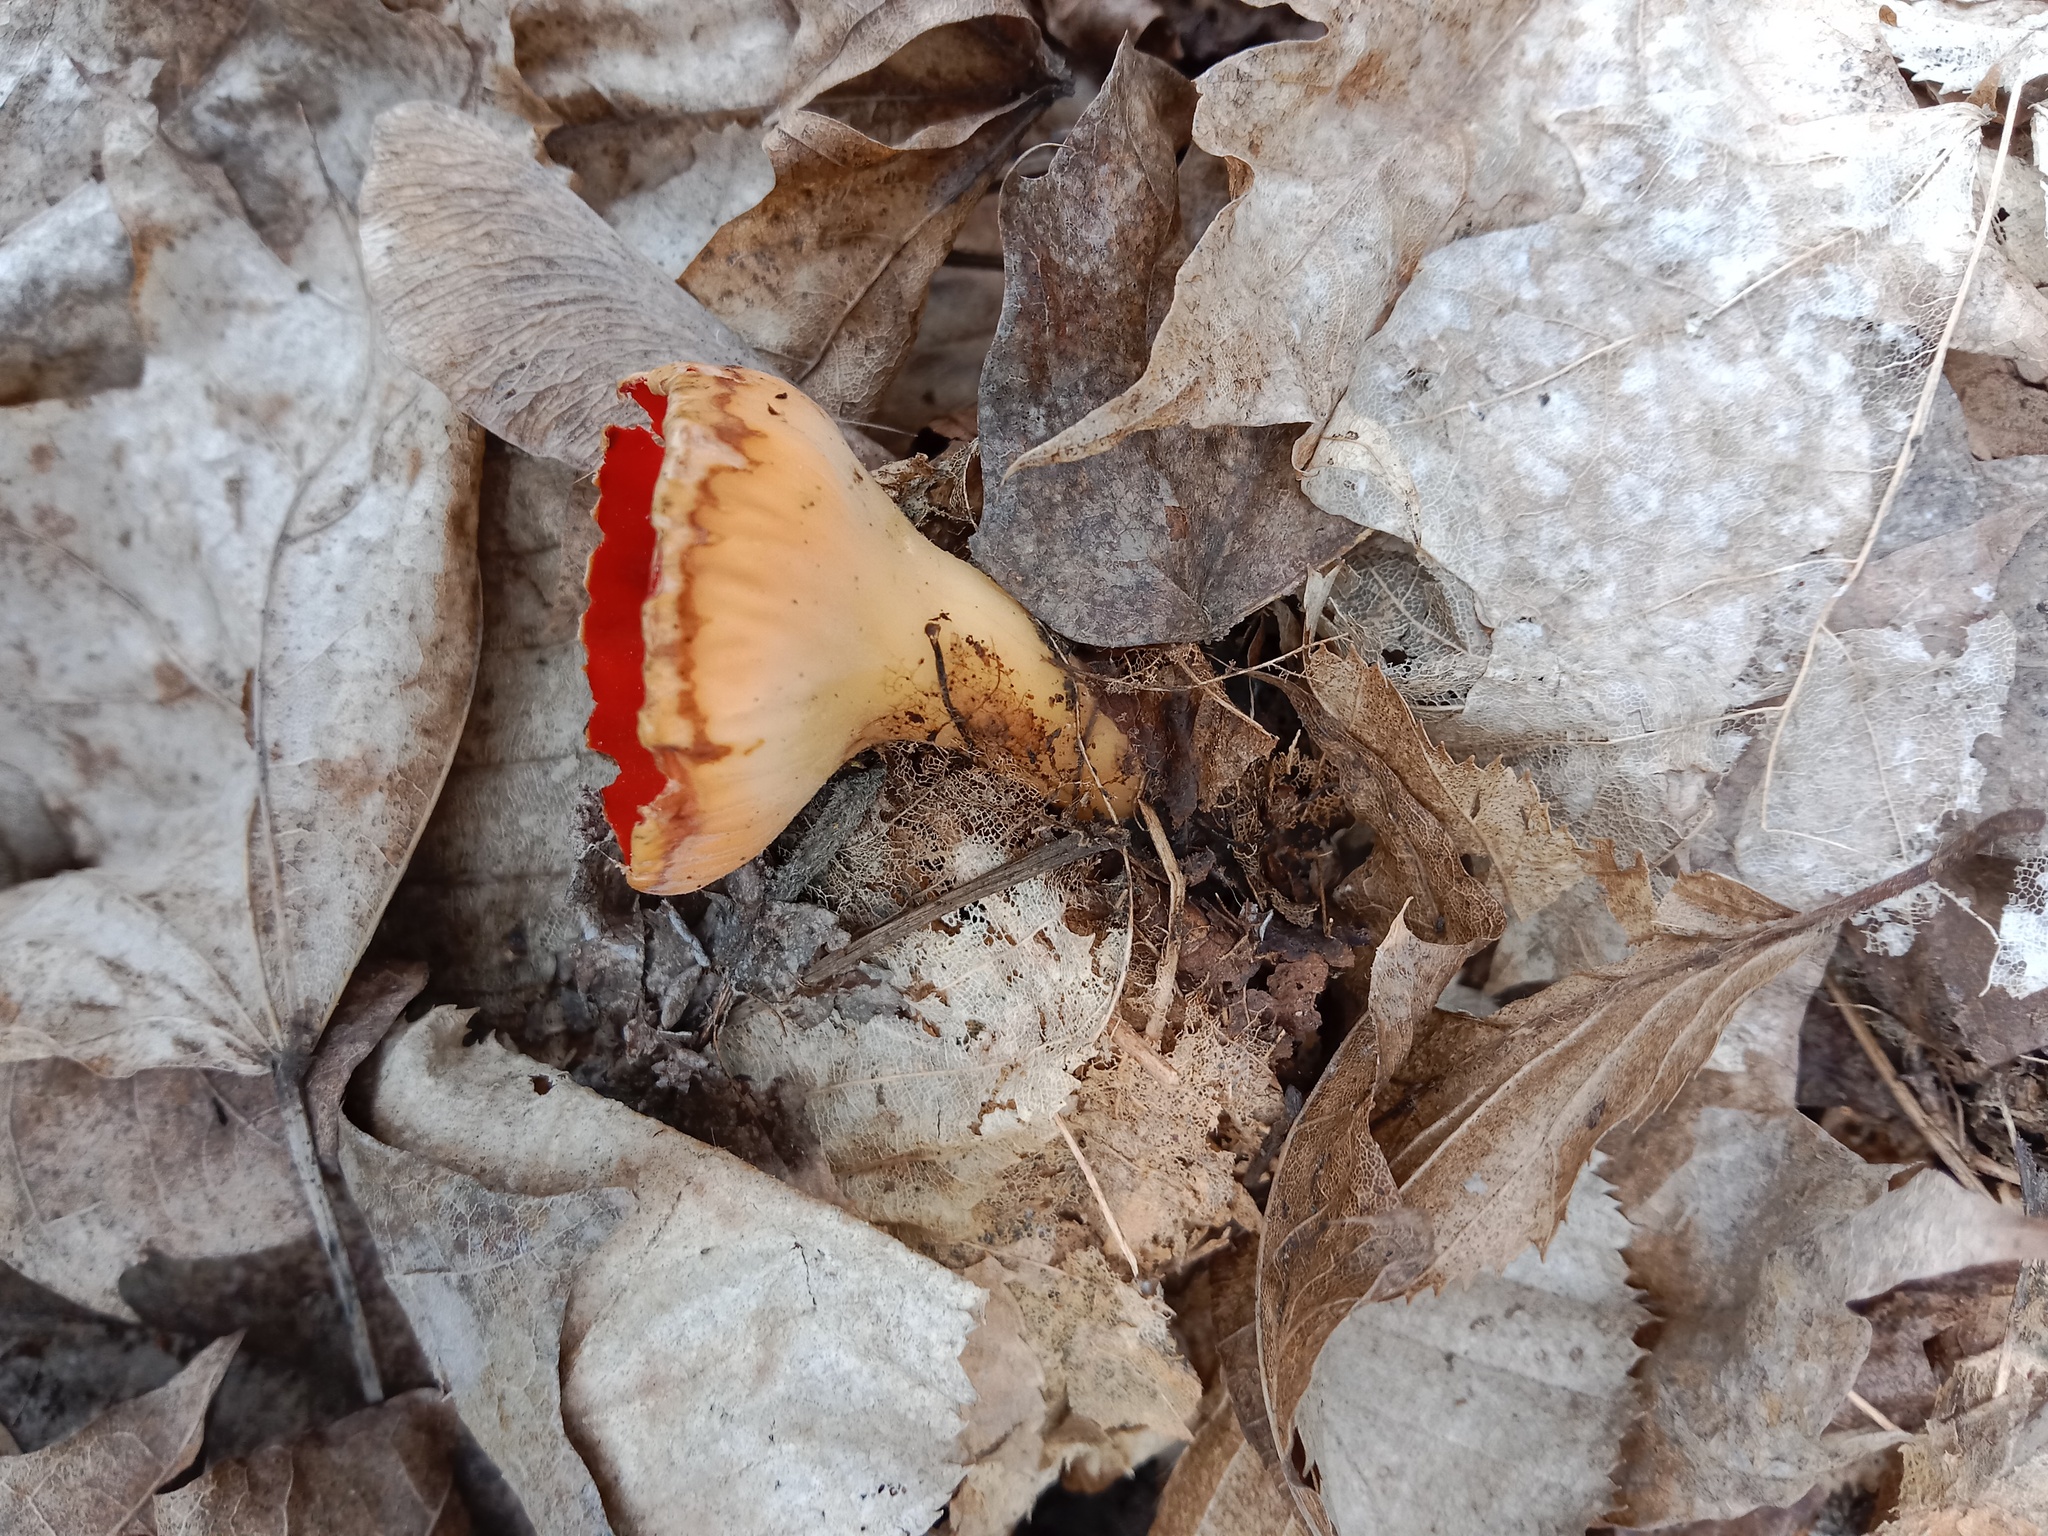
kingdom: Fungi
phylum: Ascomycota
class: Pezizomycetes
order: Pezizales
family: Sarcoscyphaceae
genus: Sarcoscypha
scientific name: Sarcoscypha
